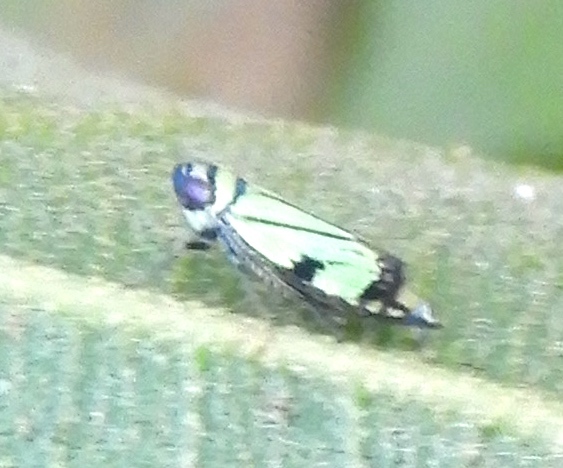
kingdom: Animalia
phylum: Arthropoda
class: Insecta
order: Hemiptera
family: Cicadellidae
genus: Stirellus
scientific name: Stirellus bicolor
